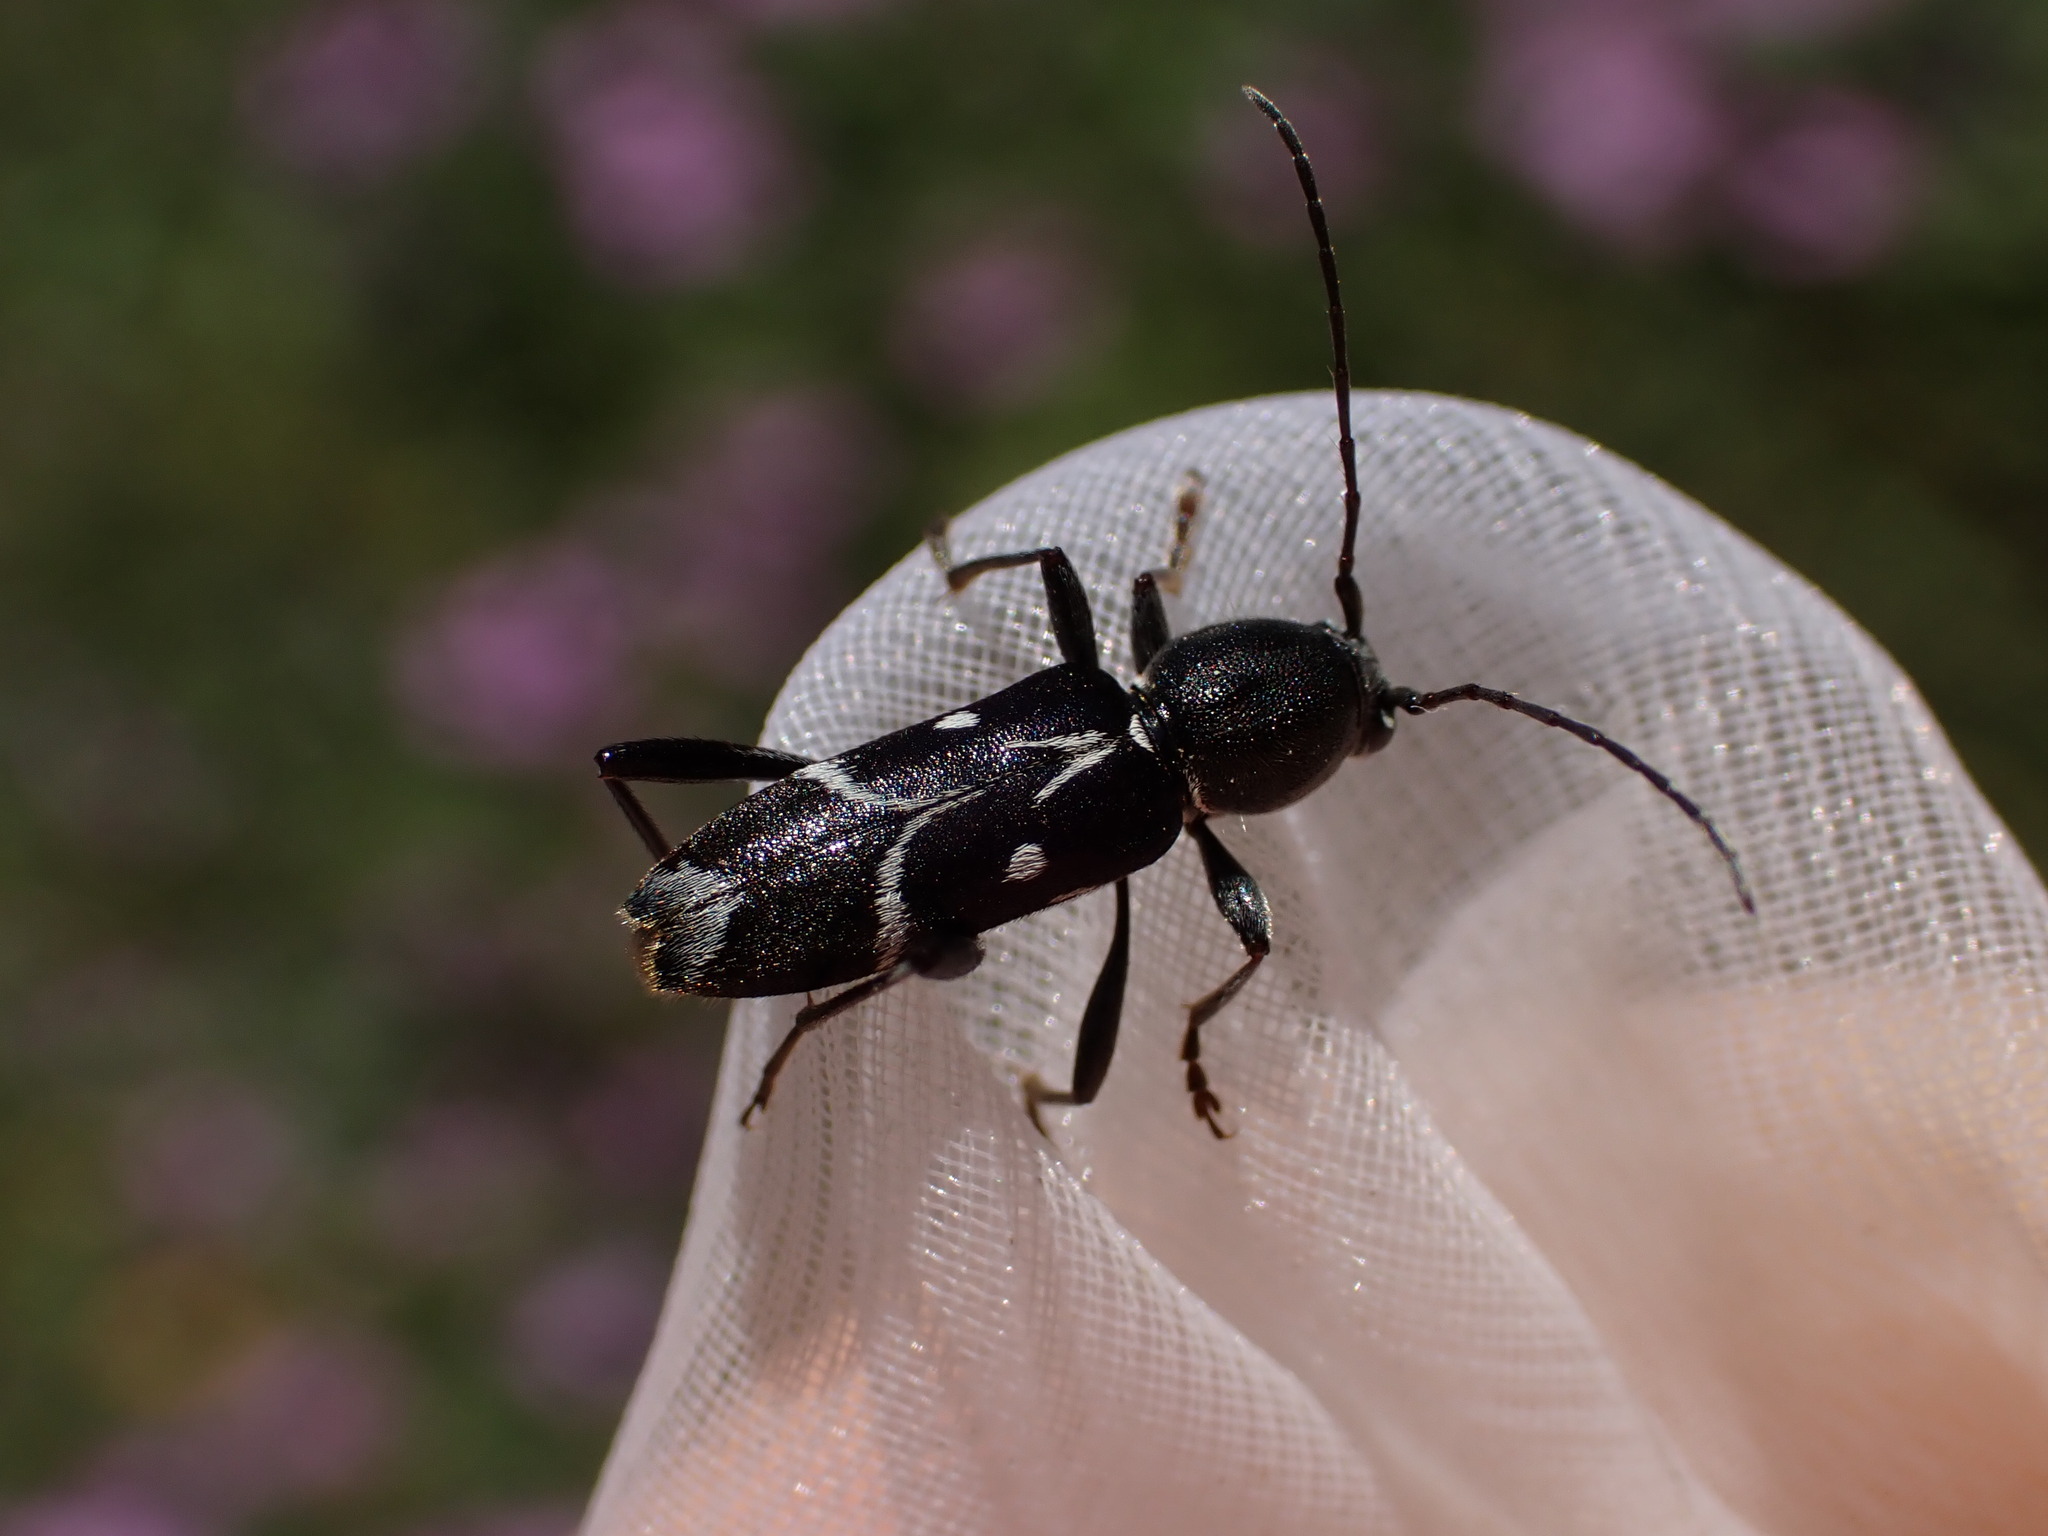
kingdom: Animalia
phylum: Arthropoda
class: Insecta
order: Coleoptera
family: Cerambycidae
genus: Chlorophorus
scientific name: Chlorophorus sartor
